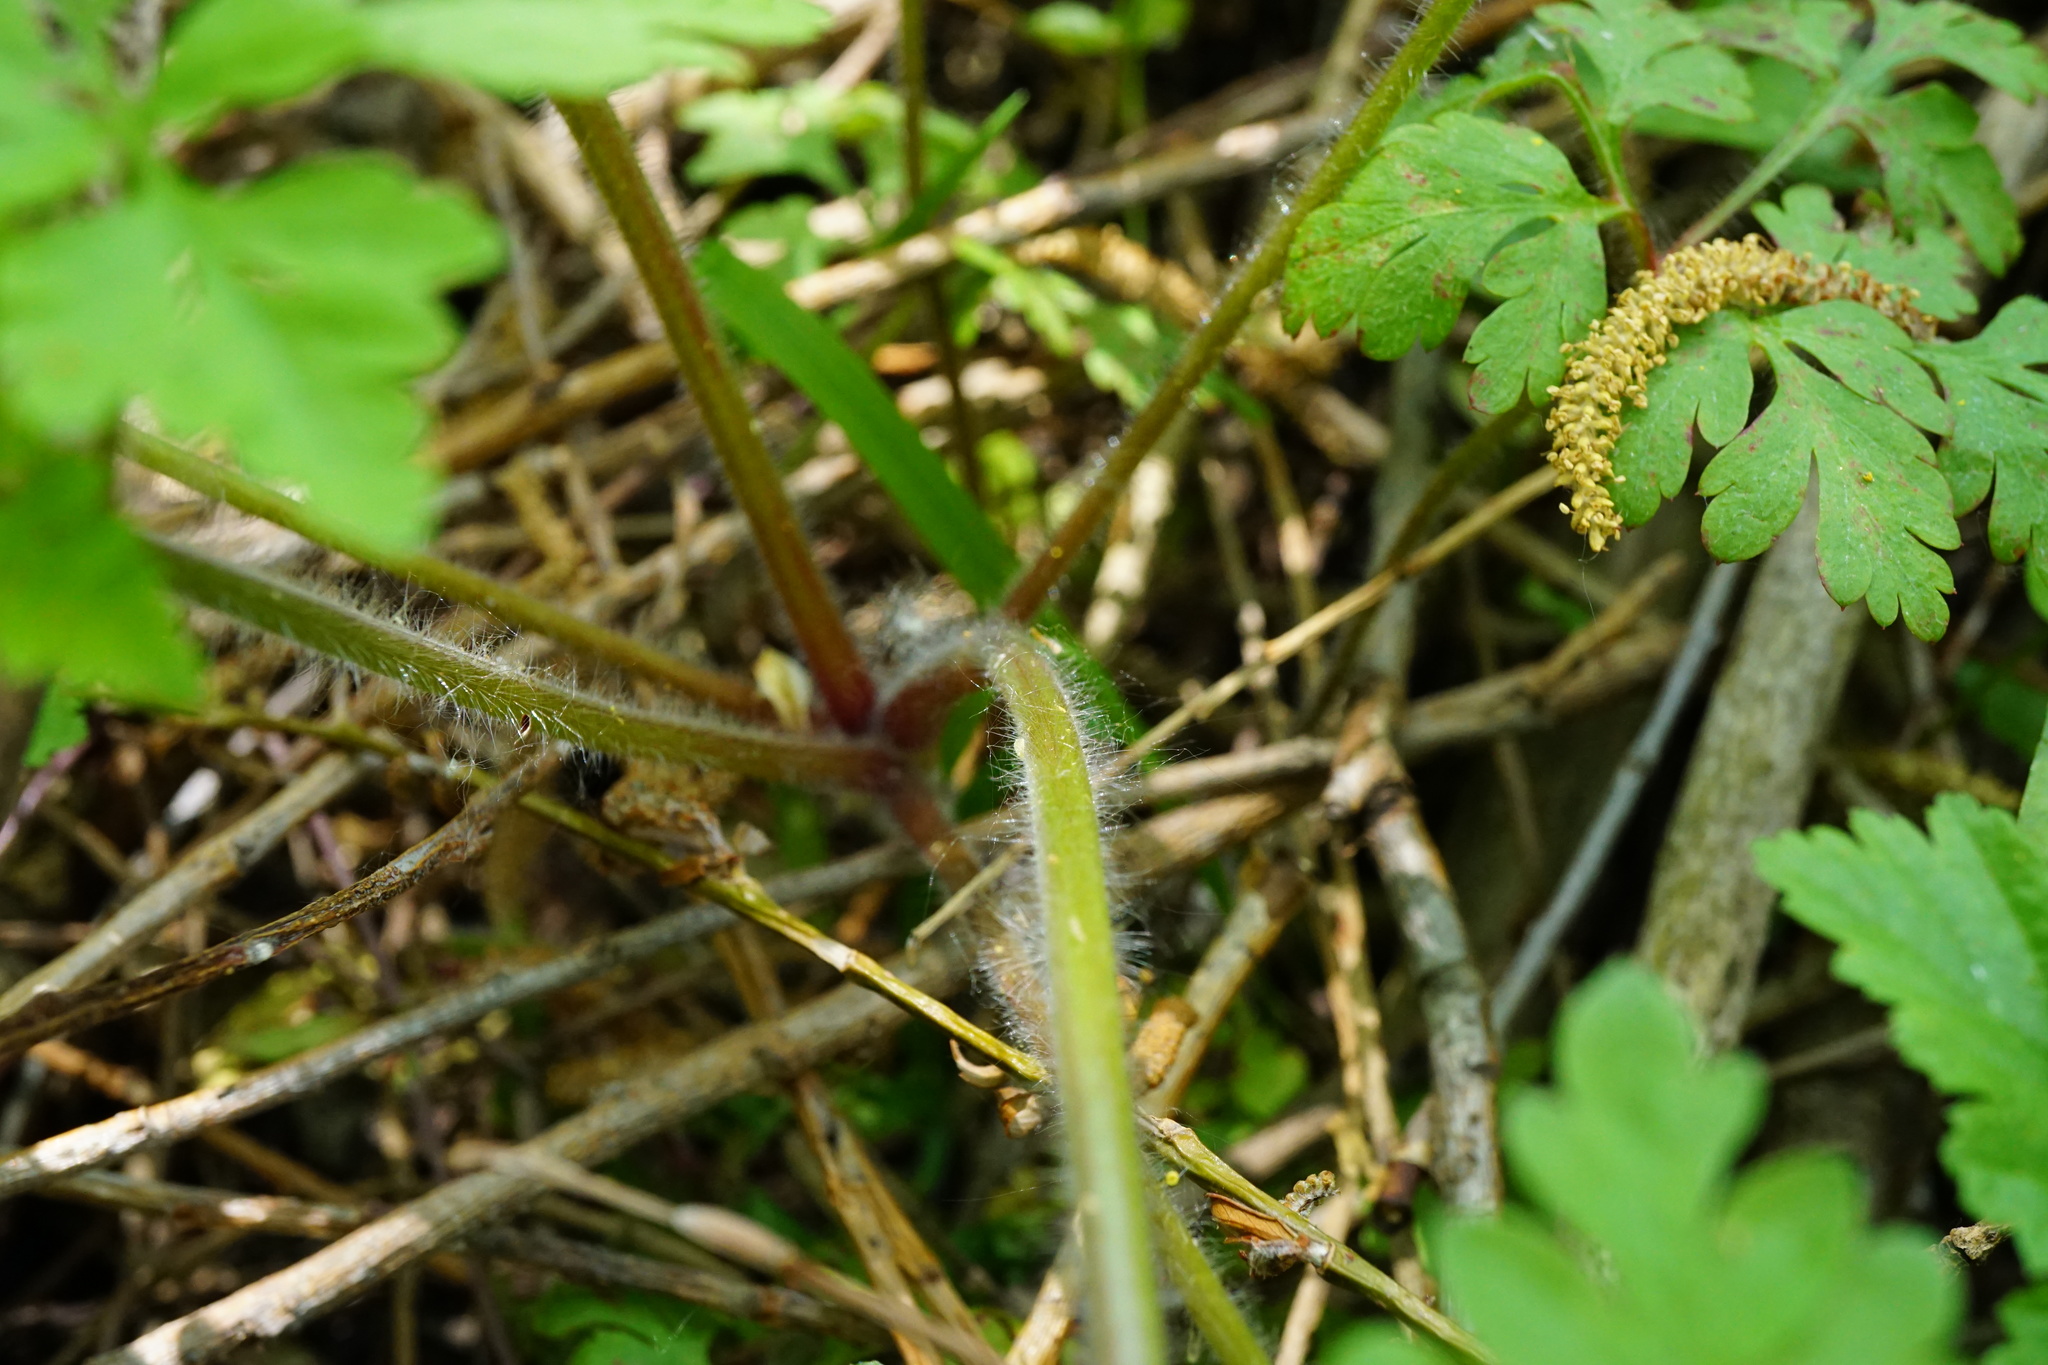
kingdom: Plantae
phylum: Tracheophyta
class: Magnoliopsida
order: Geraniales
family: Geraniaceae
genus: Geranium
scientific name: Geranium robertianum
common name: Herb-robert
